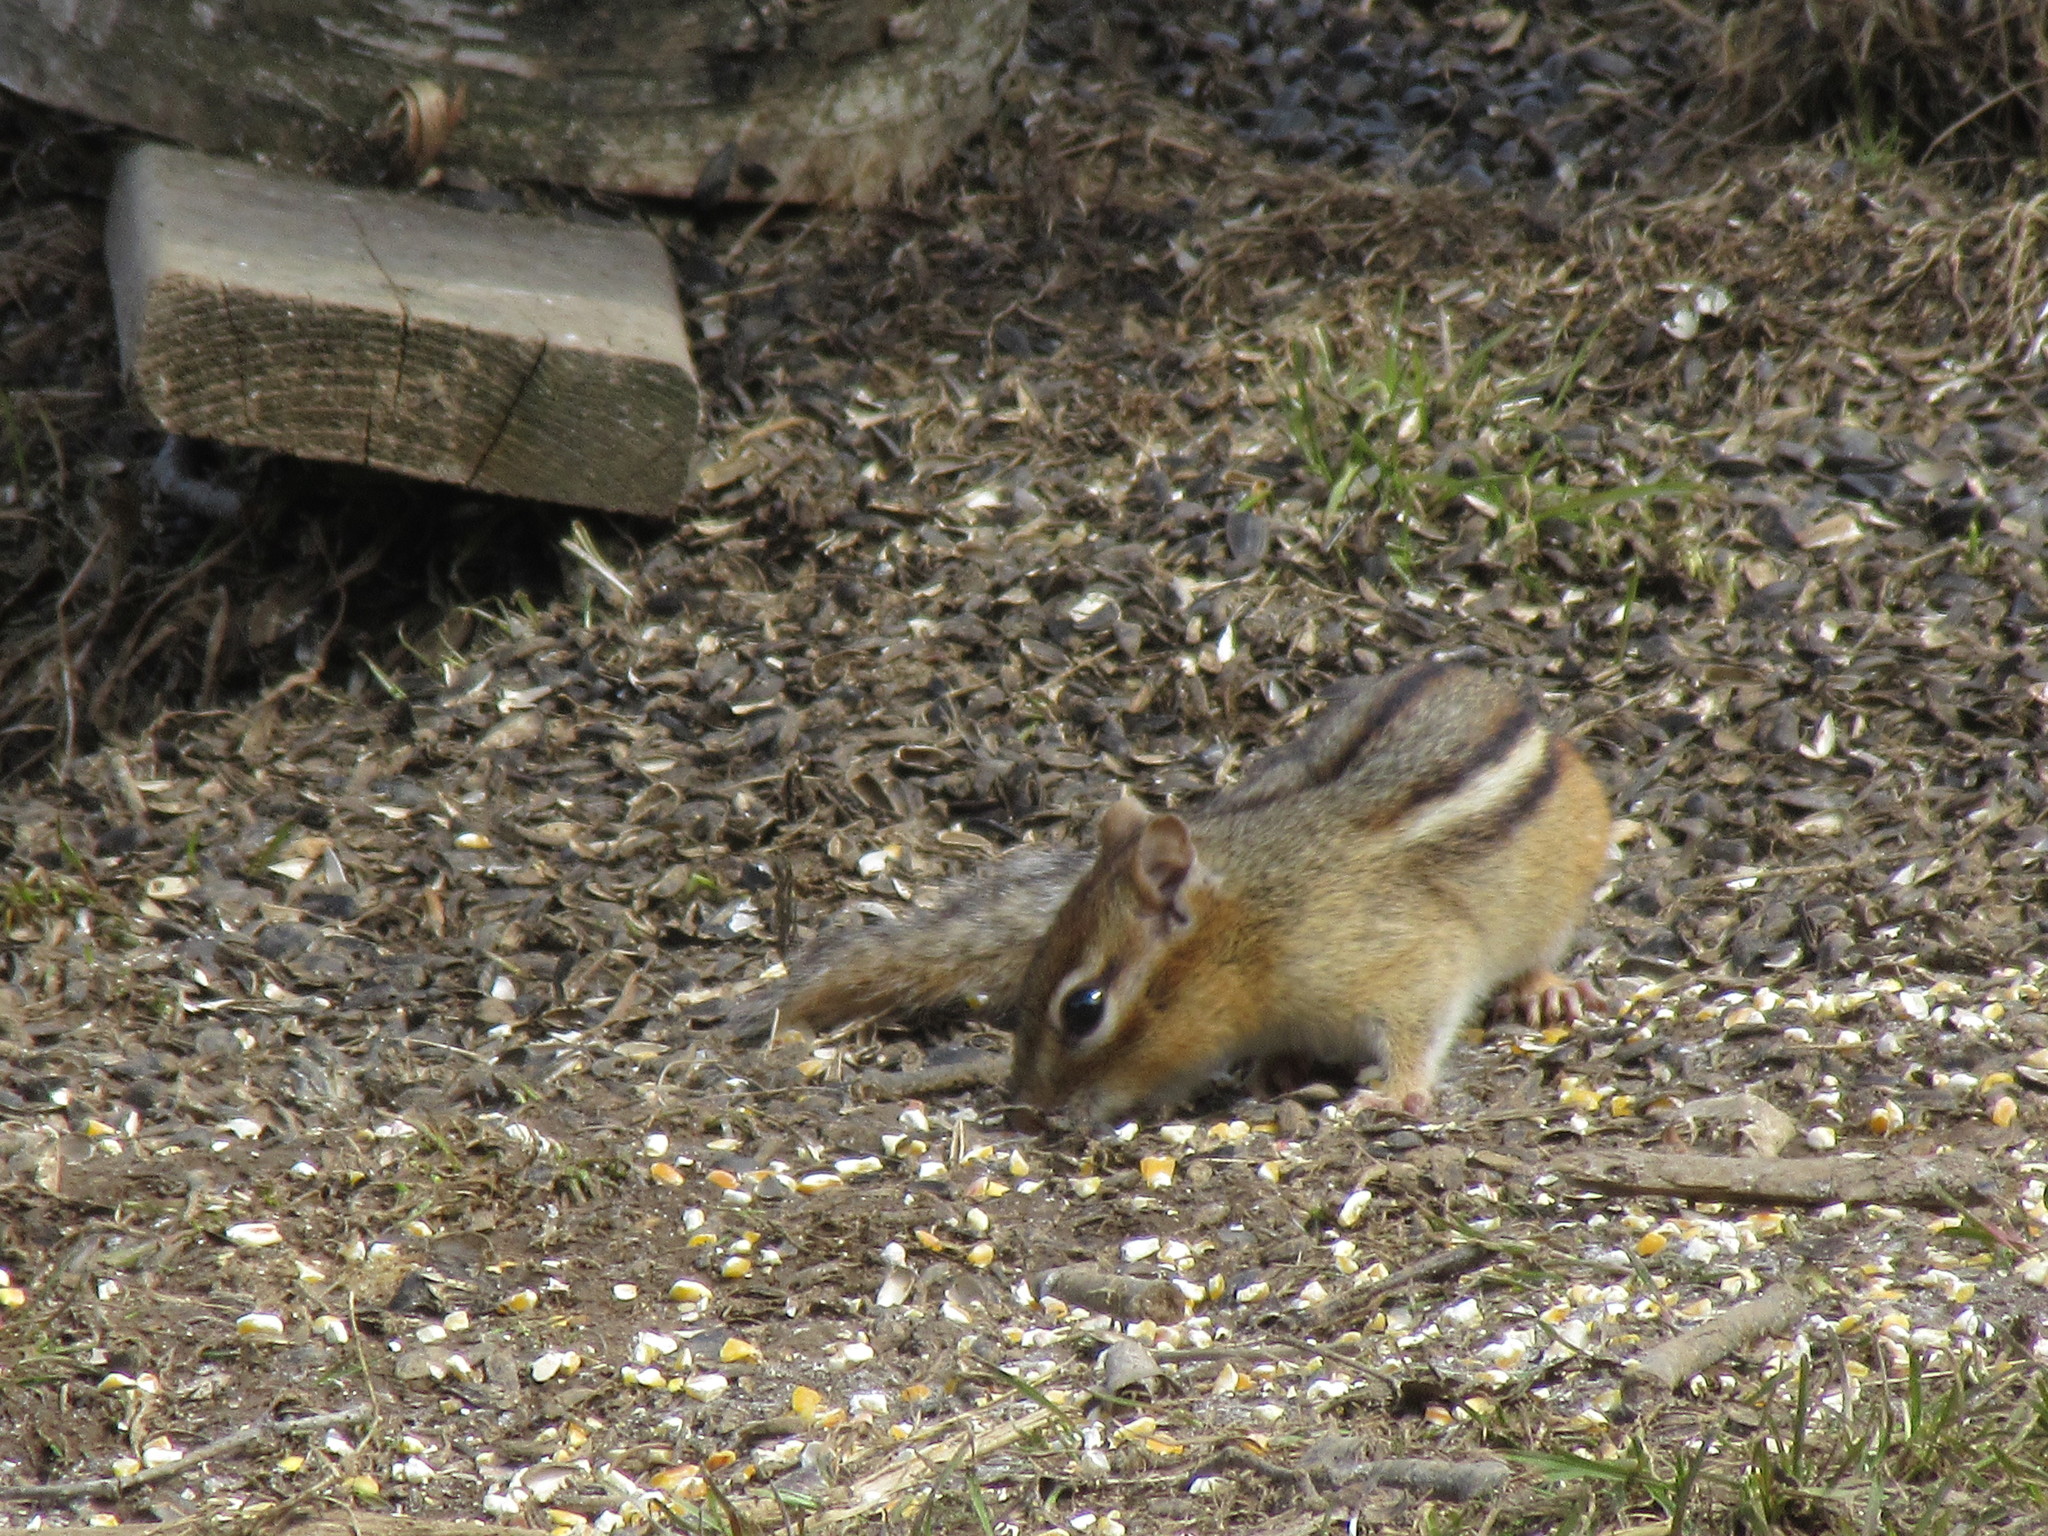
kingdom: Animalia
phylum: Chordata
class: Mammalia
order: Rodentia
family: Sciuridae
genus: Tamias
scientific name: Tamias striatus
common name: Eastern chipmunk
